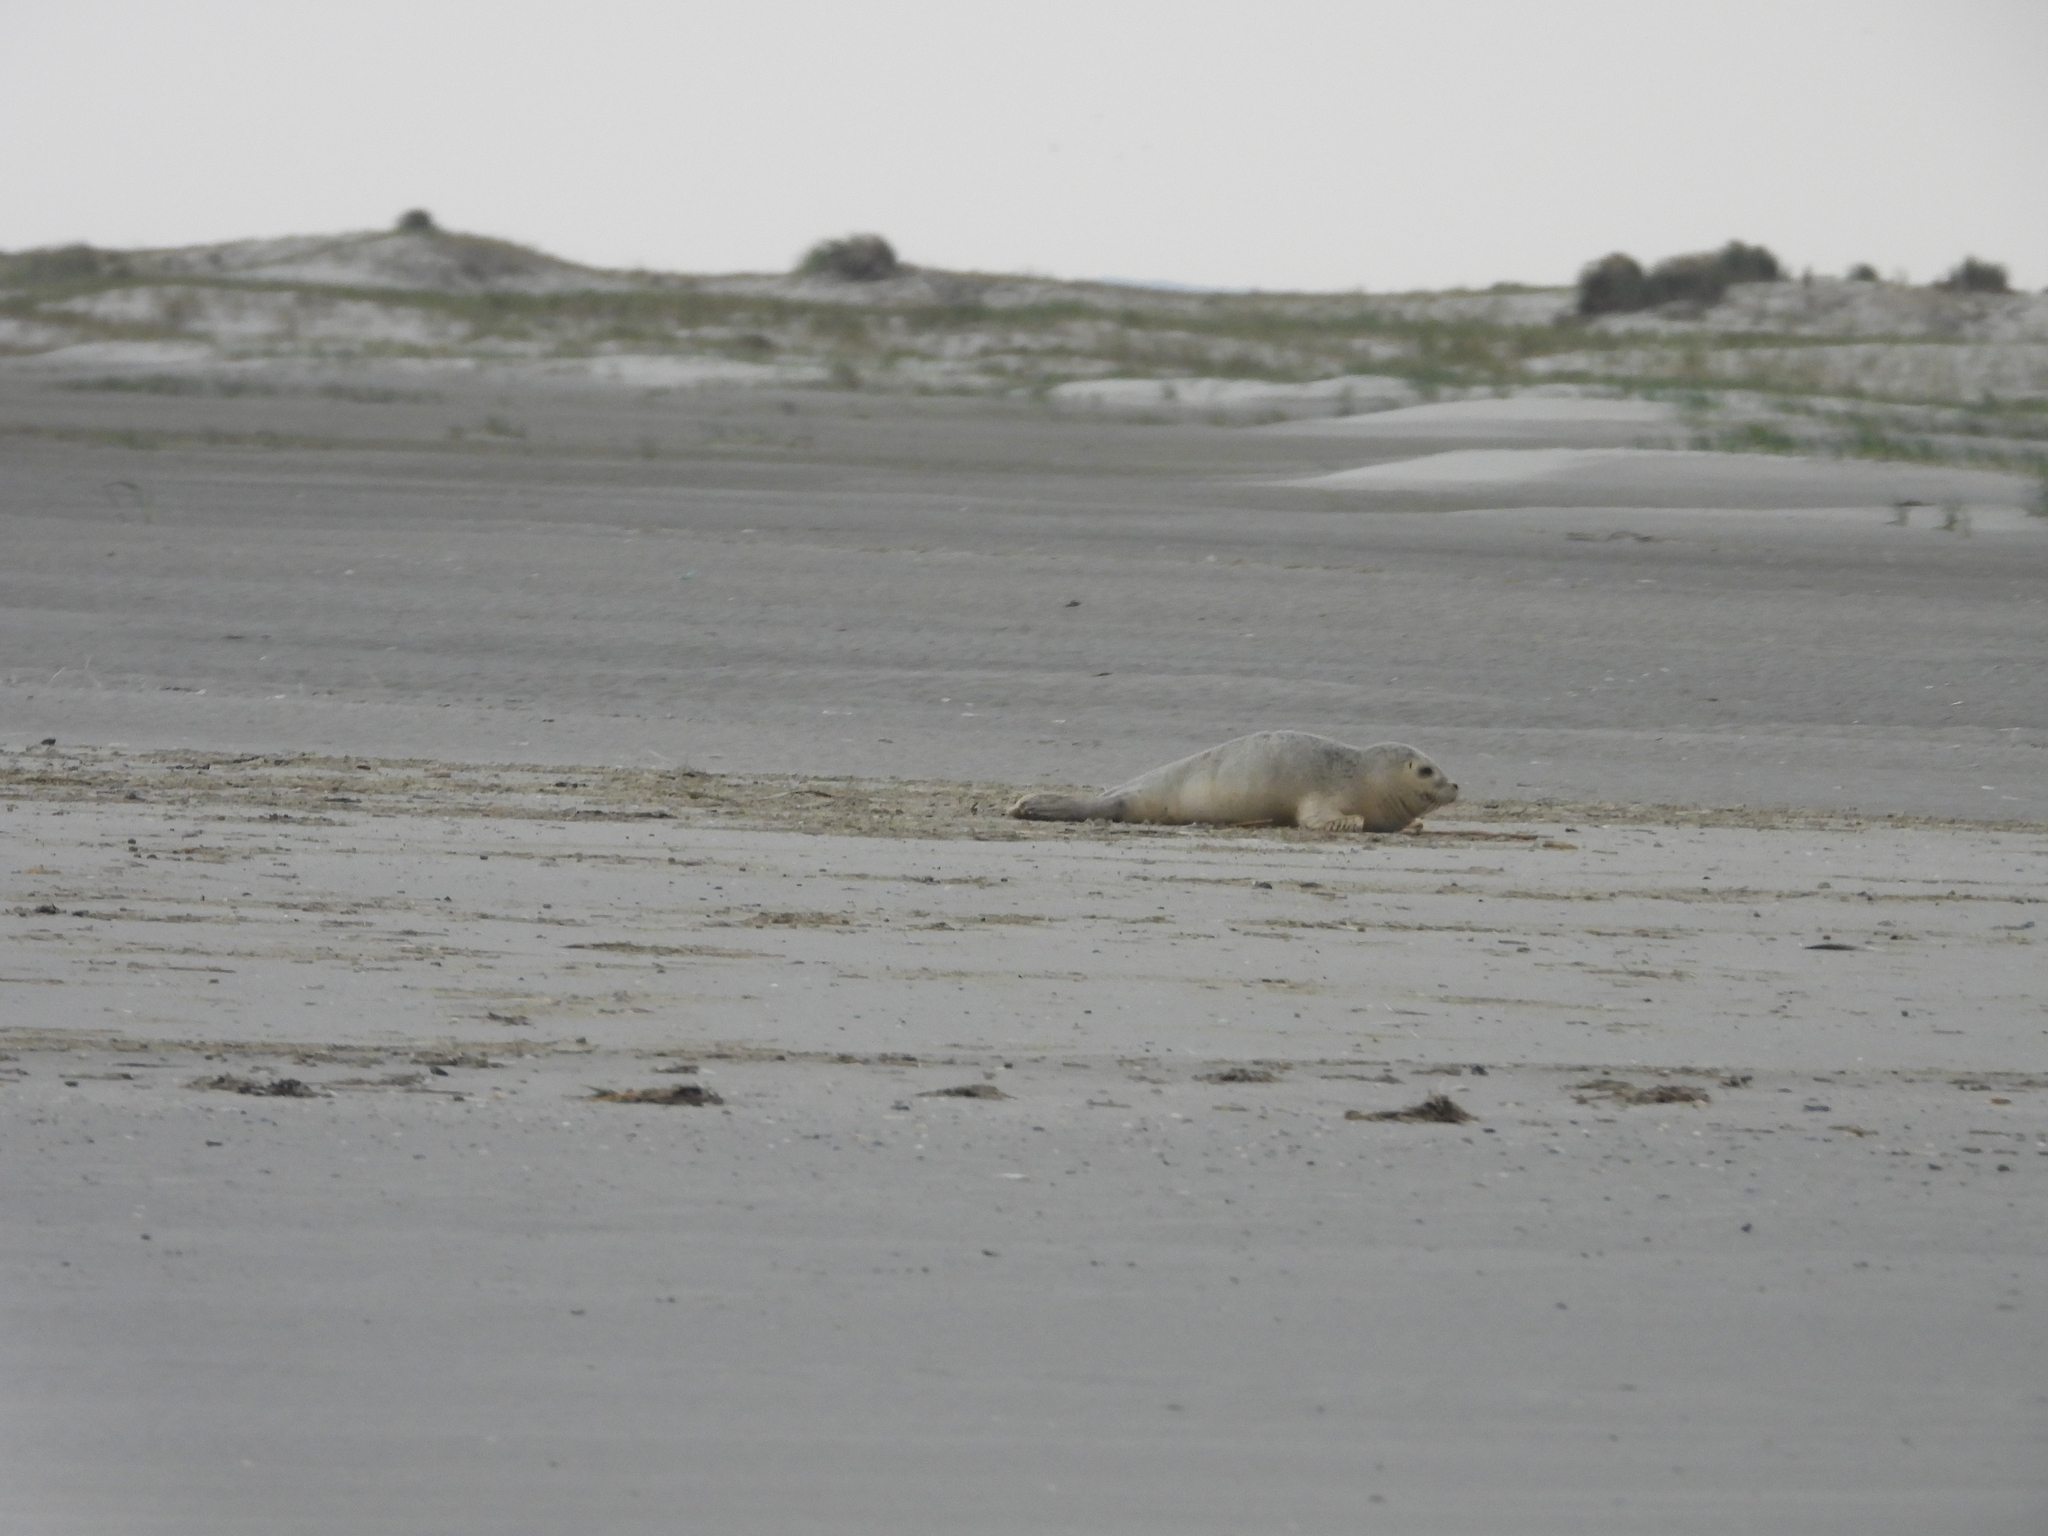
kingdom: Animalia
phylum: Chordata
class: Mammalia
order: Carnivora
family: Phocidae
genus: Phoca
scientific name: Phoca vitulina
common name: Harbor seal
